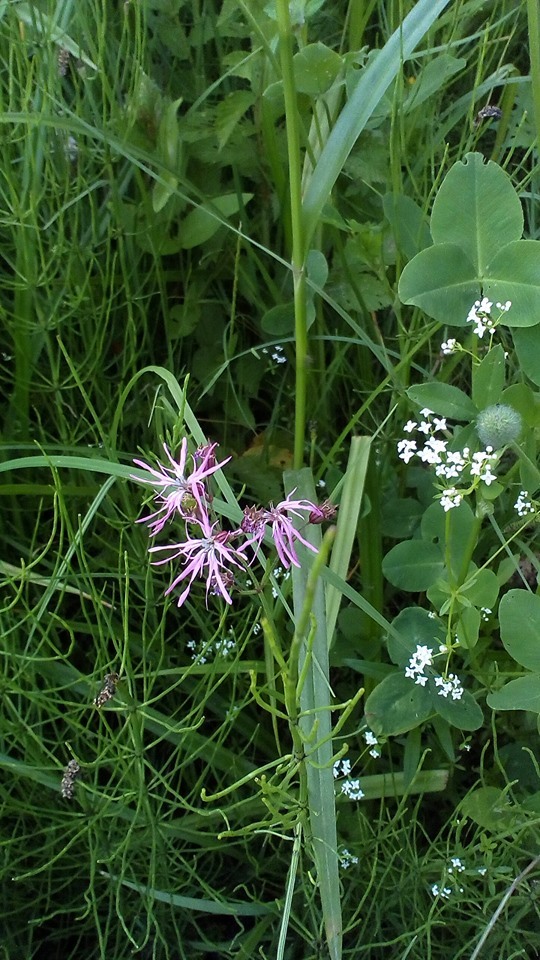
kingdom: Plantae
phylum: Tracheophyta
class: Magnoliopsida
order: Caryophyllales
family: Caryophyllaceae
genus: Silene
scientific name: Silene flos-cuculi
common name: Ragged-robin
